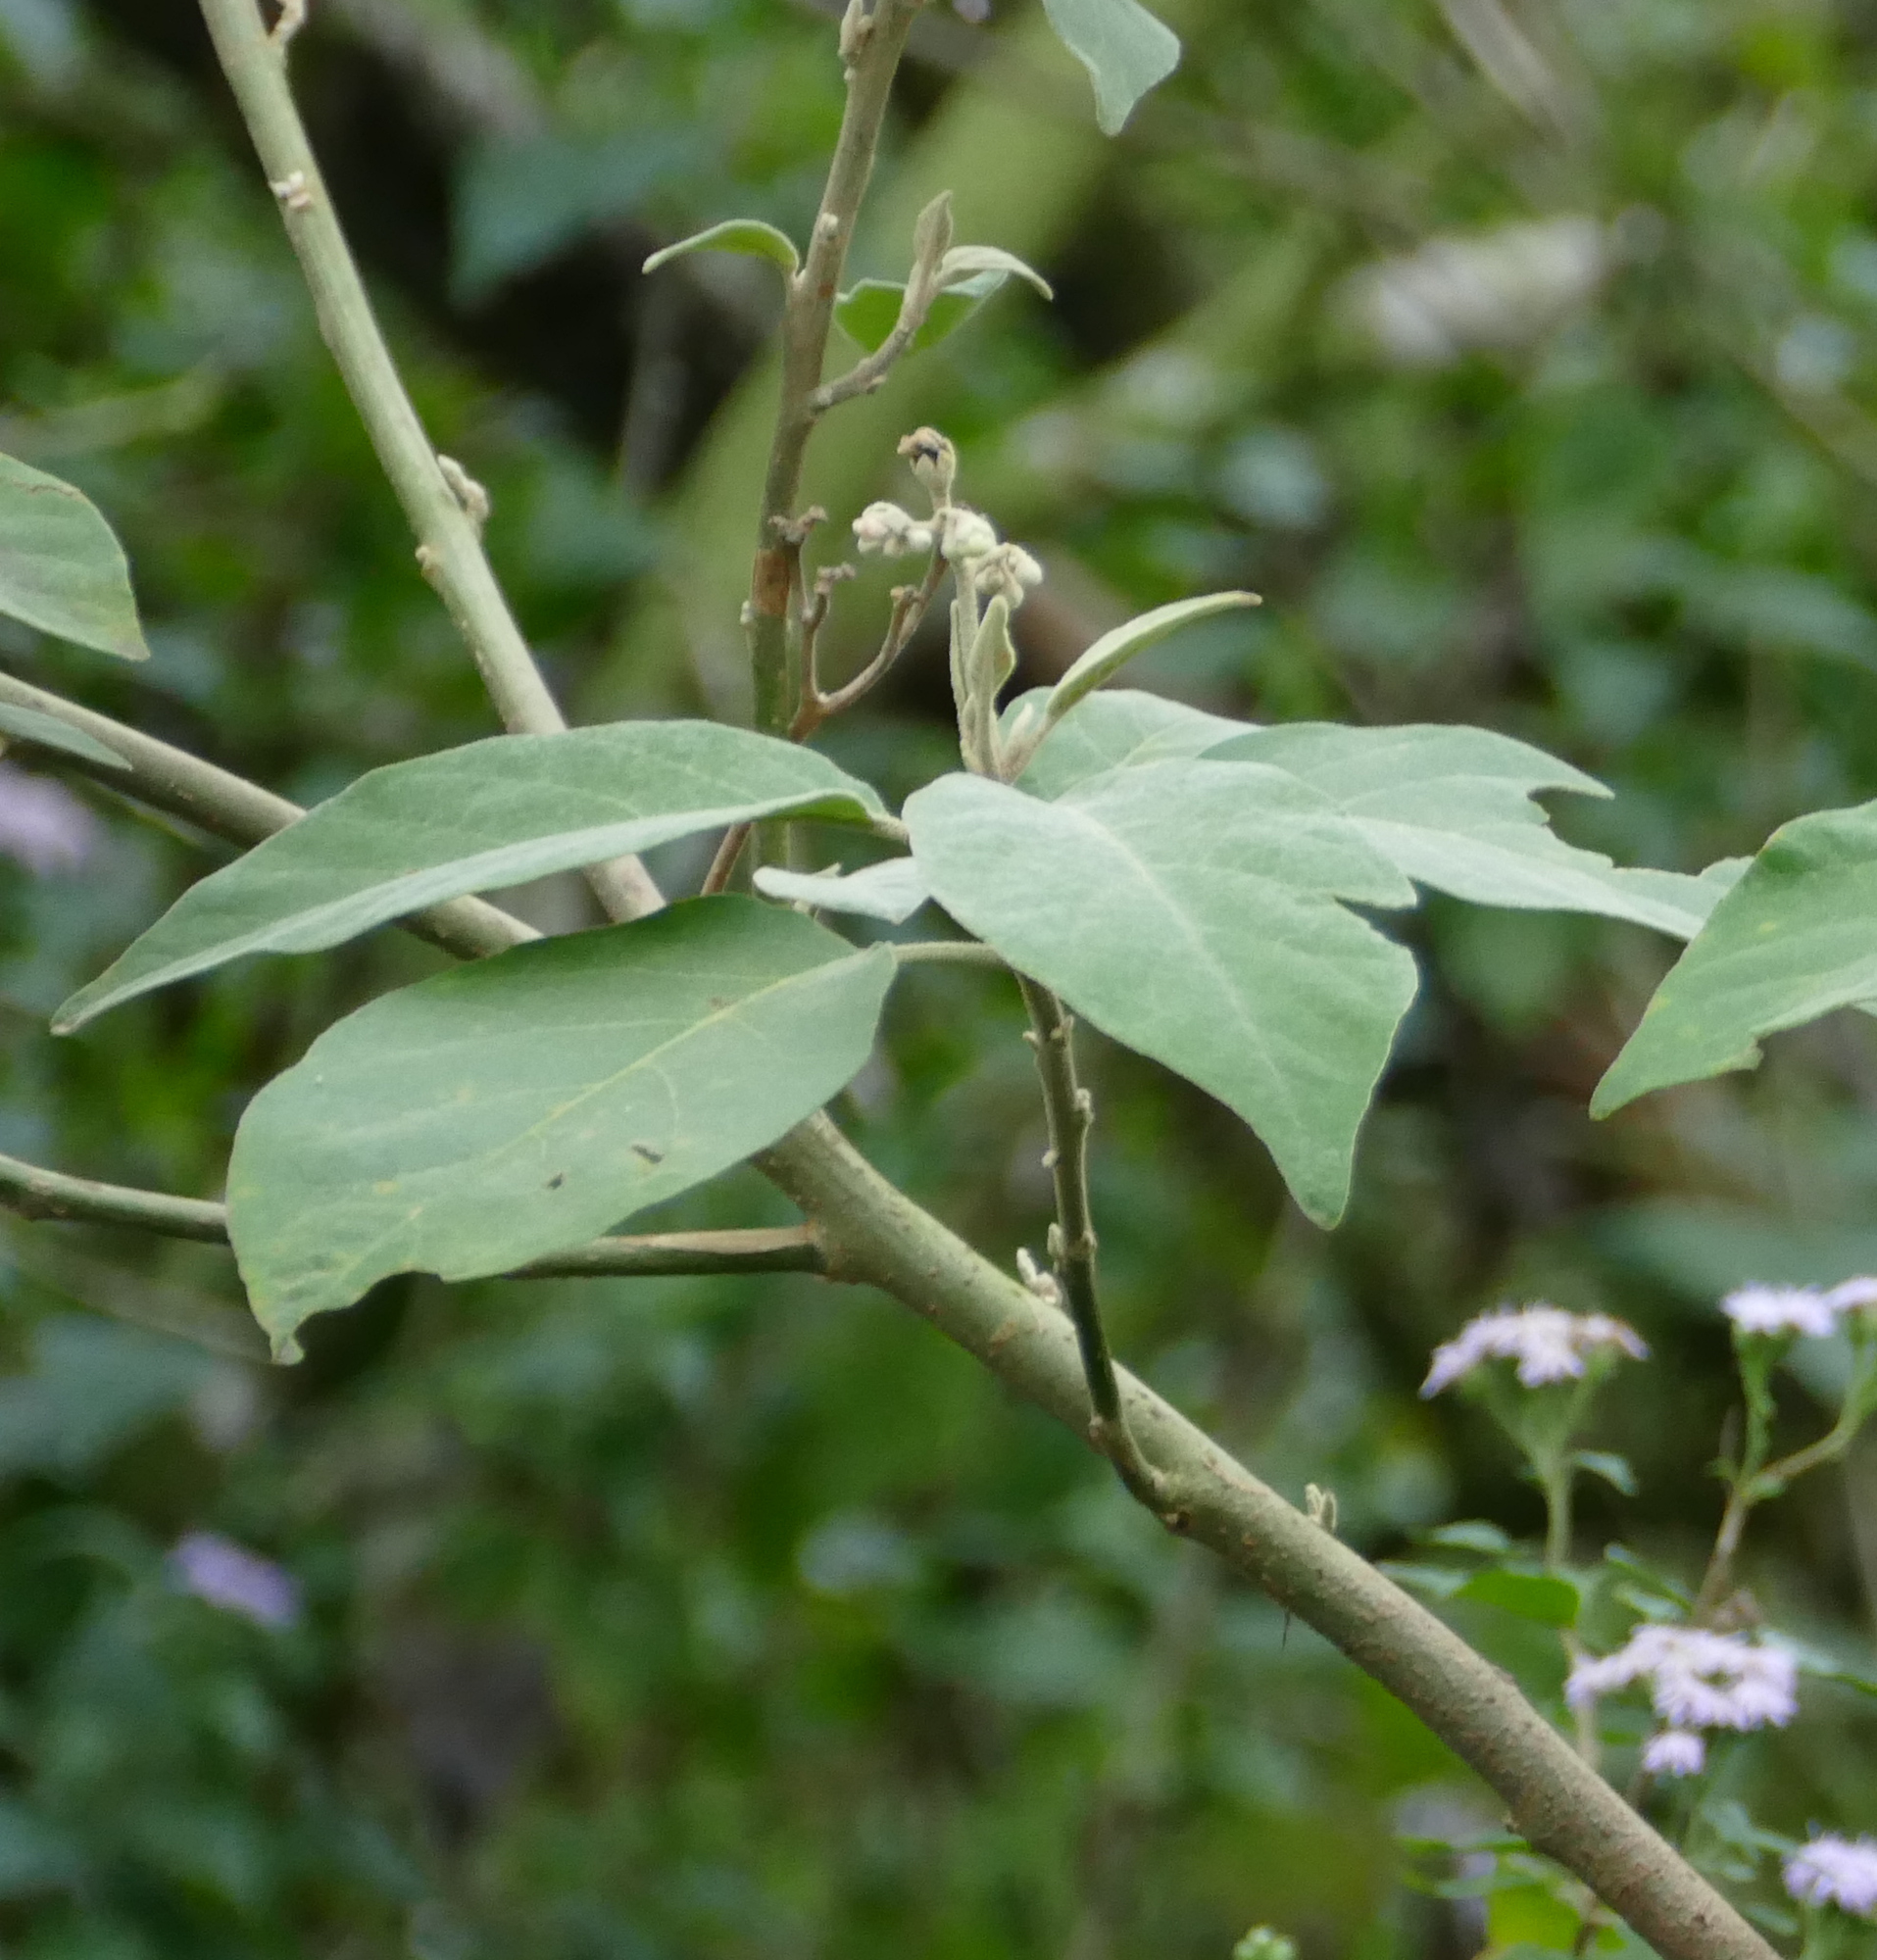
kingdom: Plantae
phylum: Tracheophyta
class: Magnoliopsida
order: Solanales
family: Solanaceae
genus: Solanum
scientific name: Solanum erianthum
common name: Tobacco-tree
